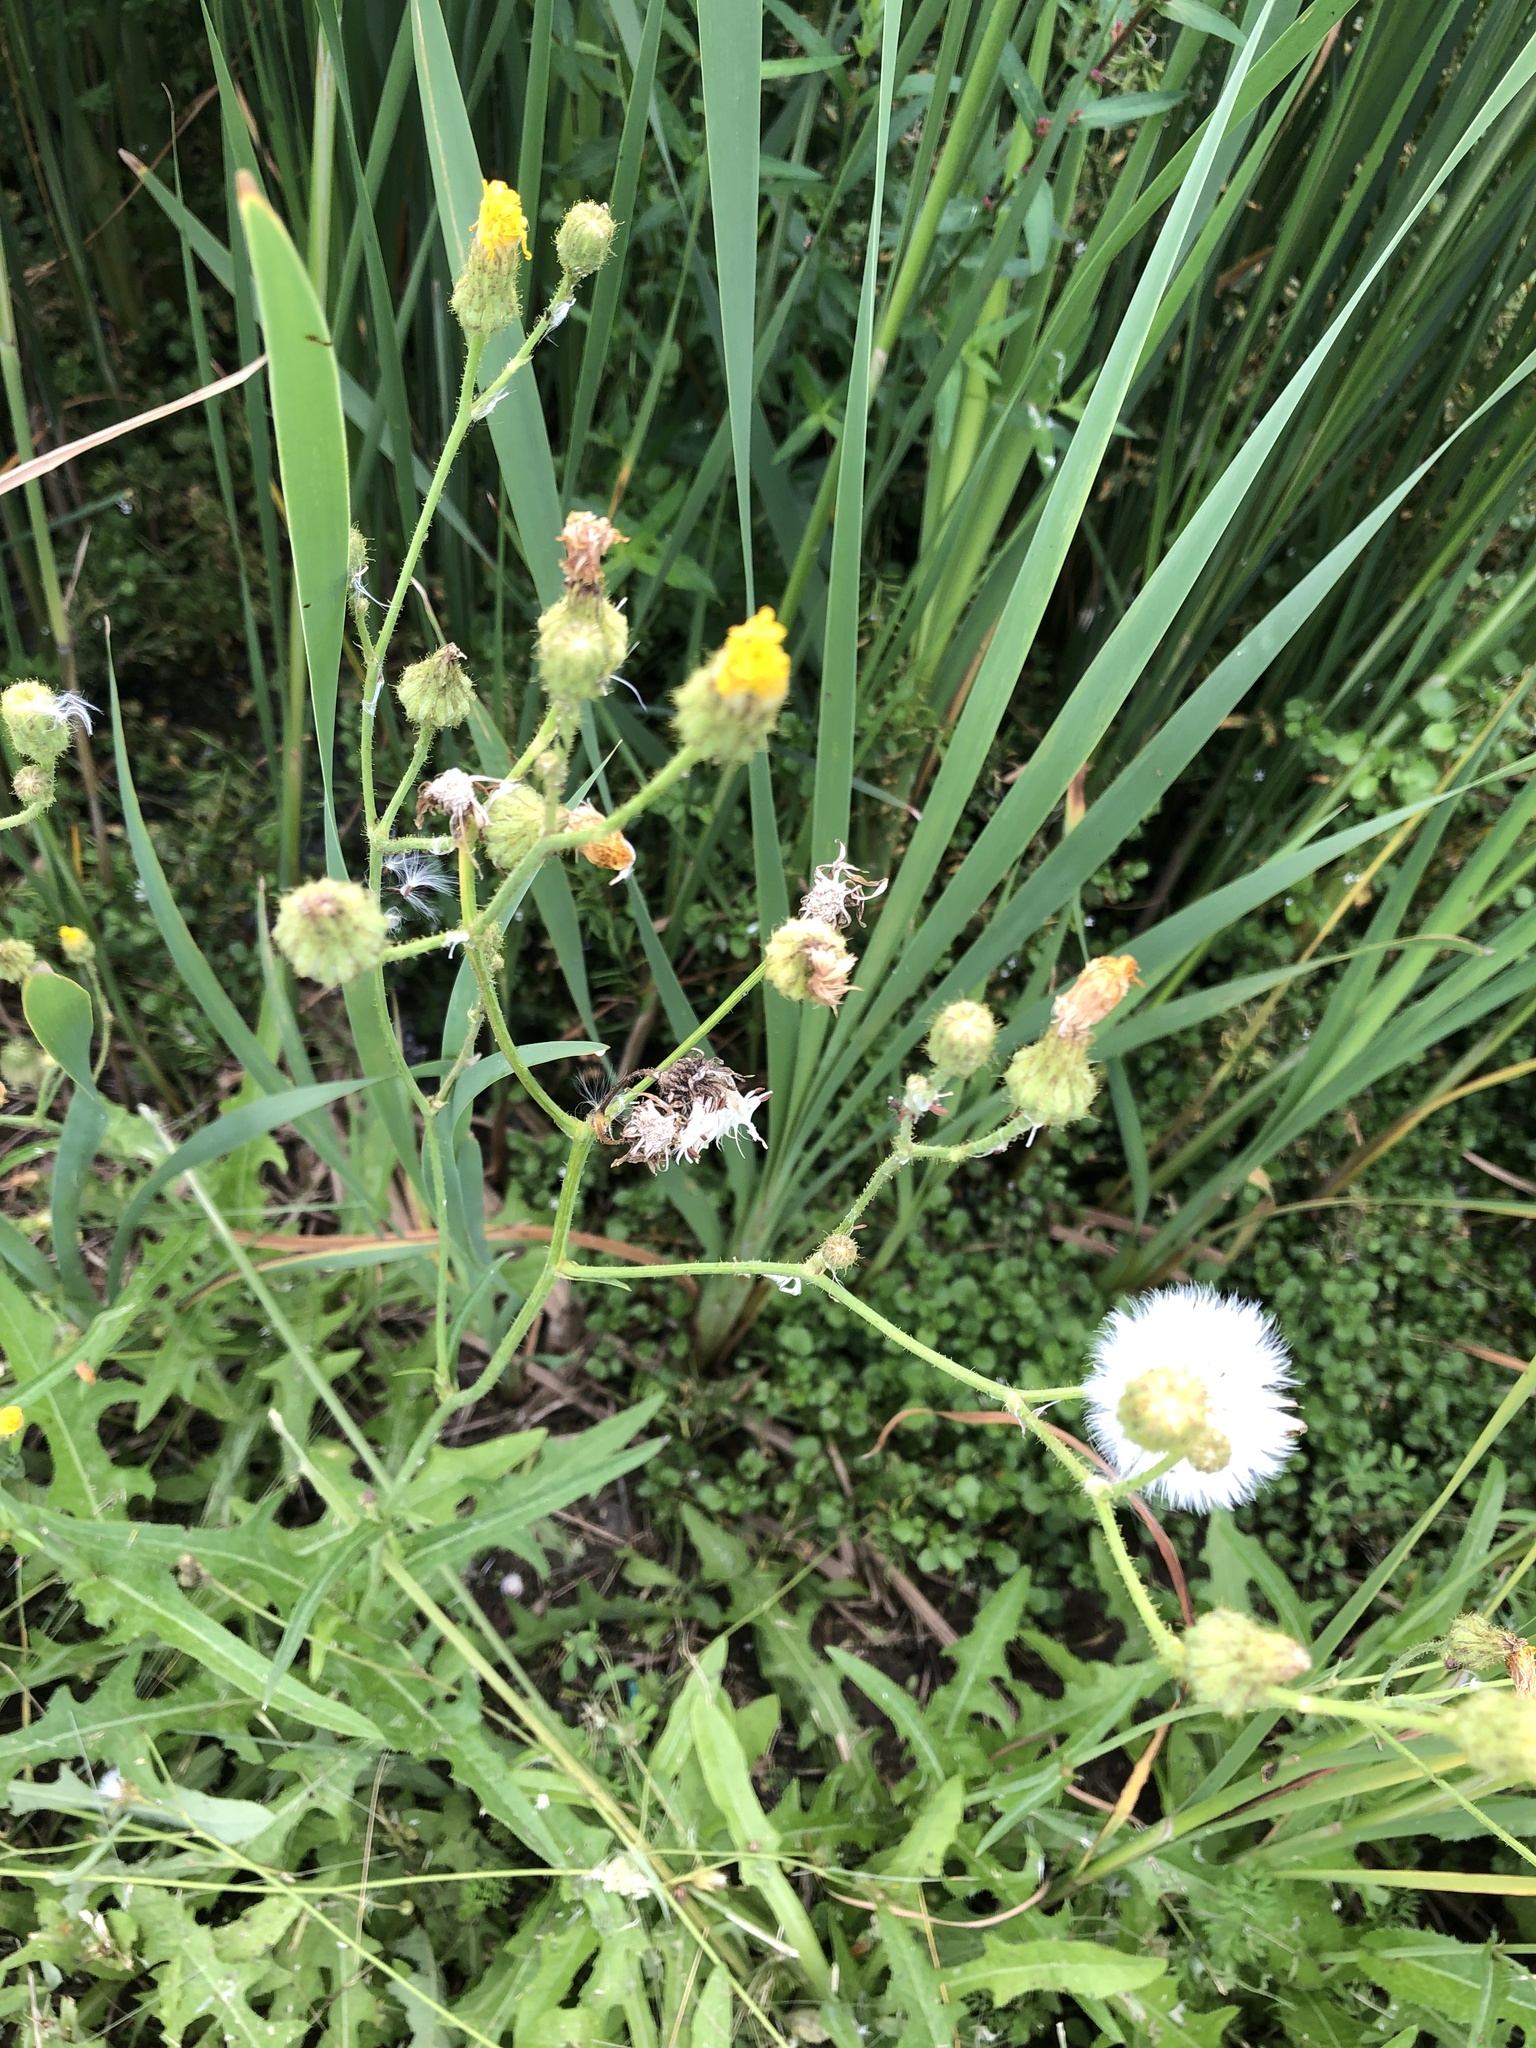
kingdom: Plantae
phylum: Tracheophyta
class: Magnoliopsida
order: Asterales
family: Asteraceae
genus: Sonchus
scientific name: Sonchus arvensis
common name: Perennial sow-thistle
